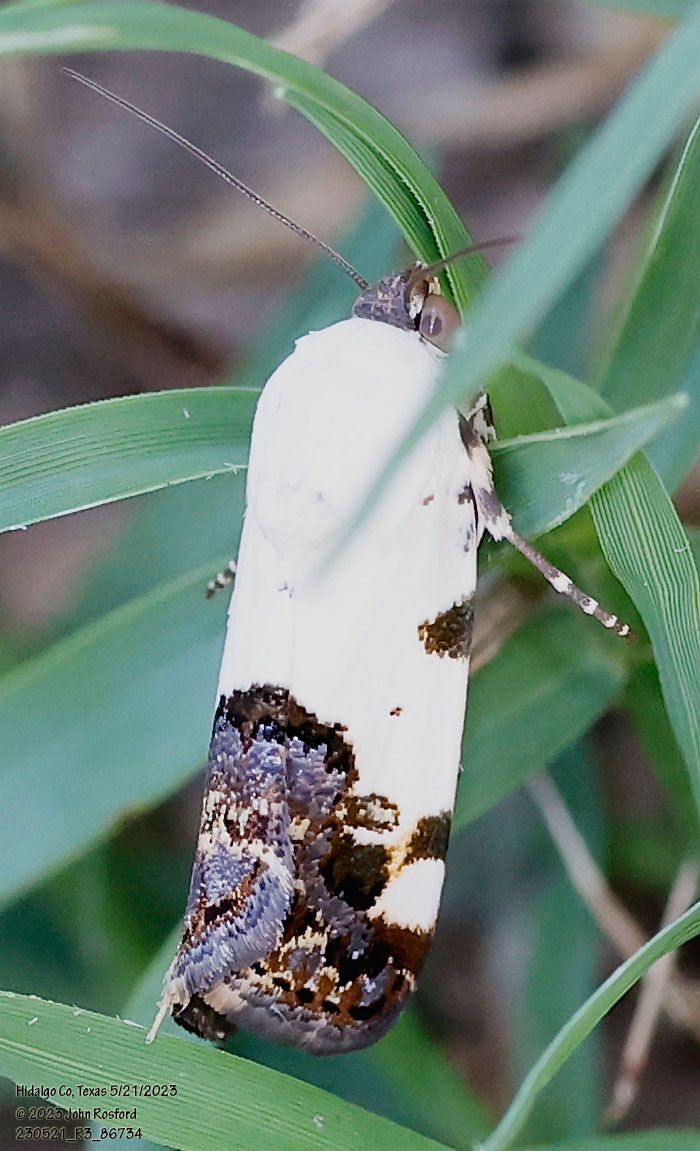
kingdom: Animalia
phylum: Arthropoda
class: Insecta
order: Lepidoptera
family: Noctuidae
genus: Acontia
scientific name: Acontia aprica
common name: Nun
